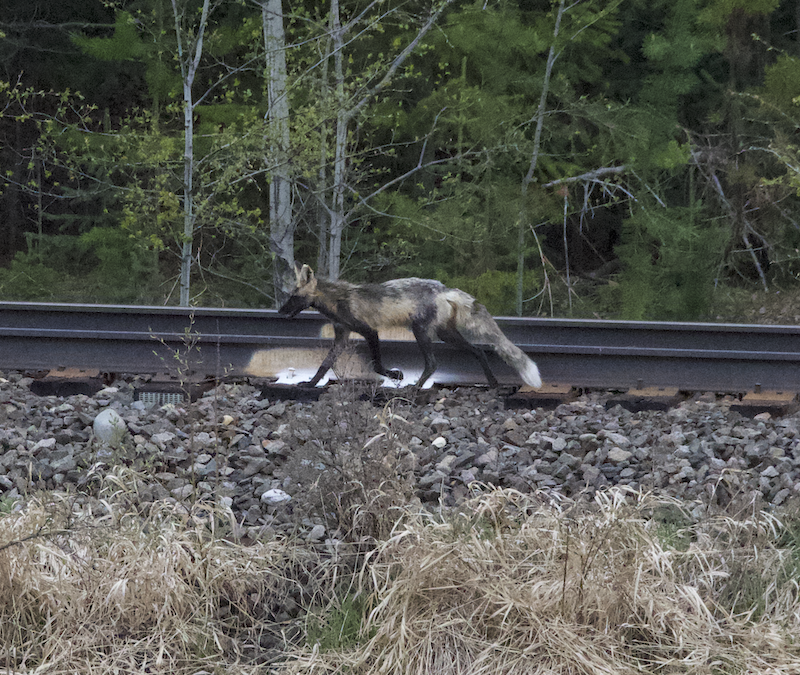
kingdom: Animalia
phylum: Chordata
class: Mammalia
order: Carnivora
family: Canidae
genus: Vulpes
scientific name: Vulpes vulpes
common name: Red fox
